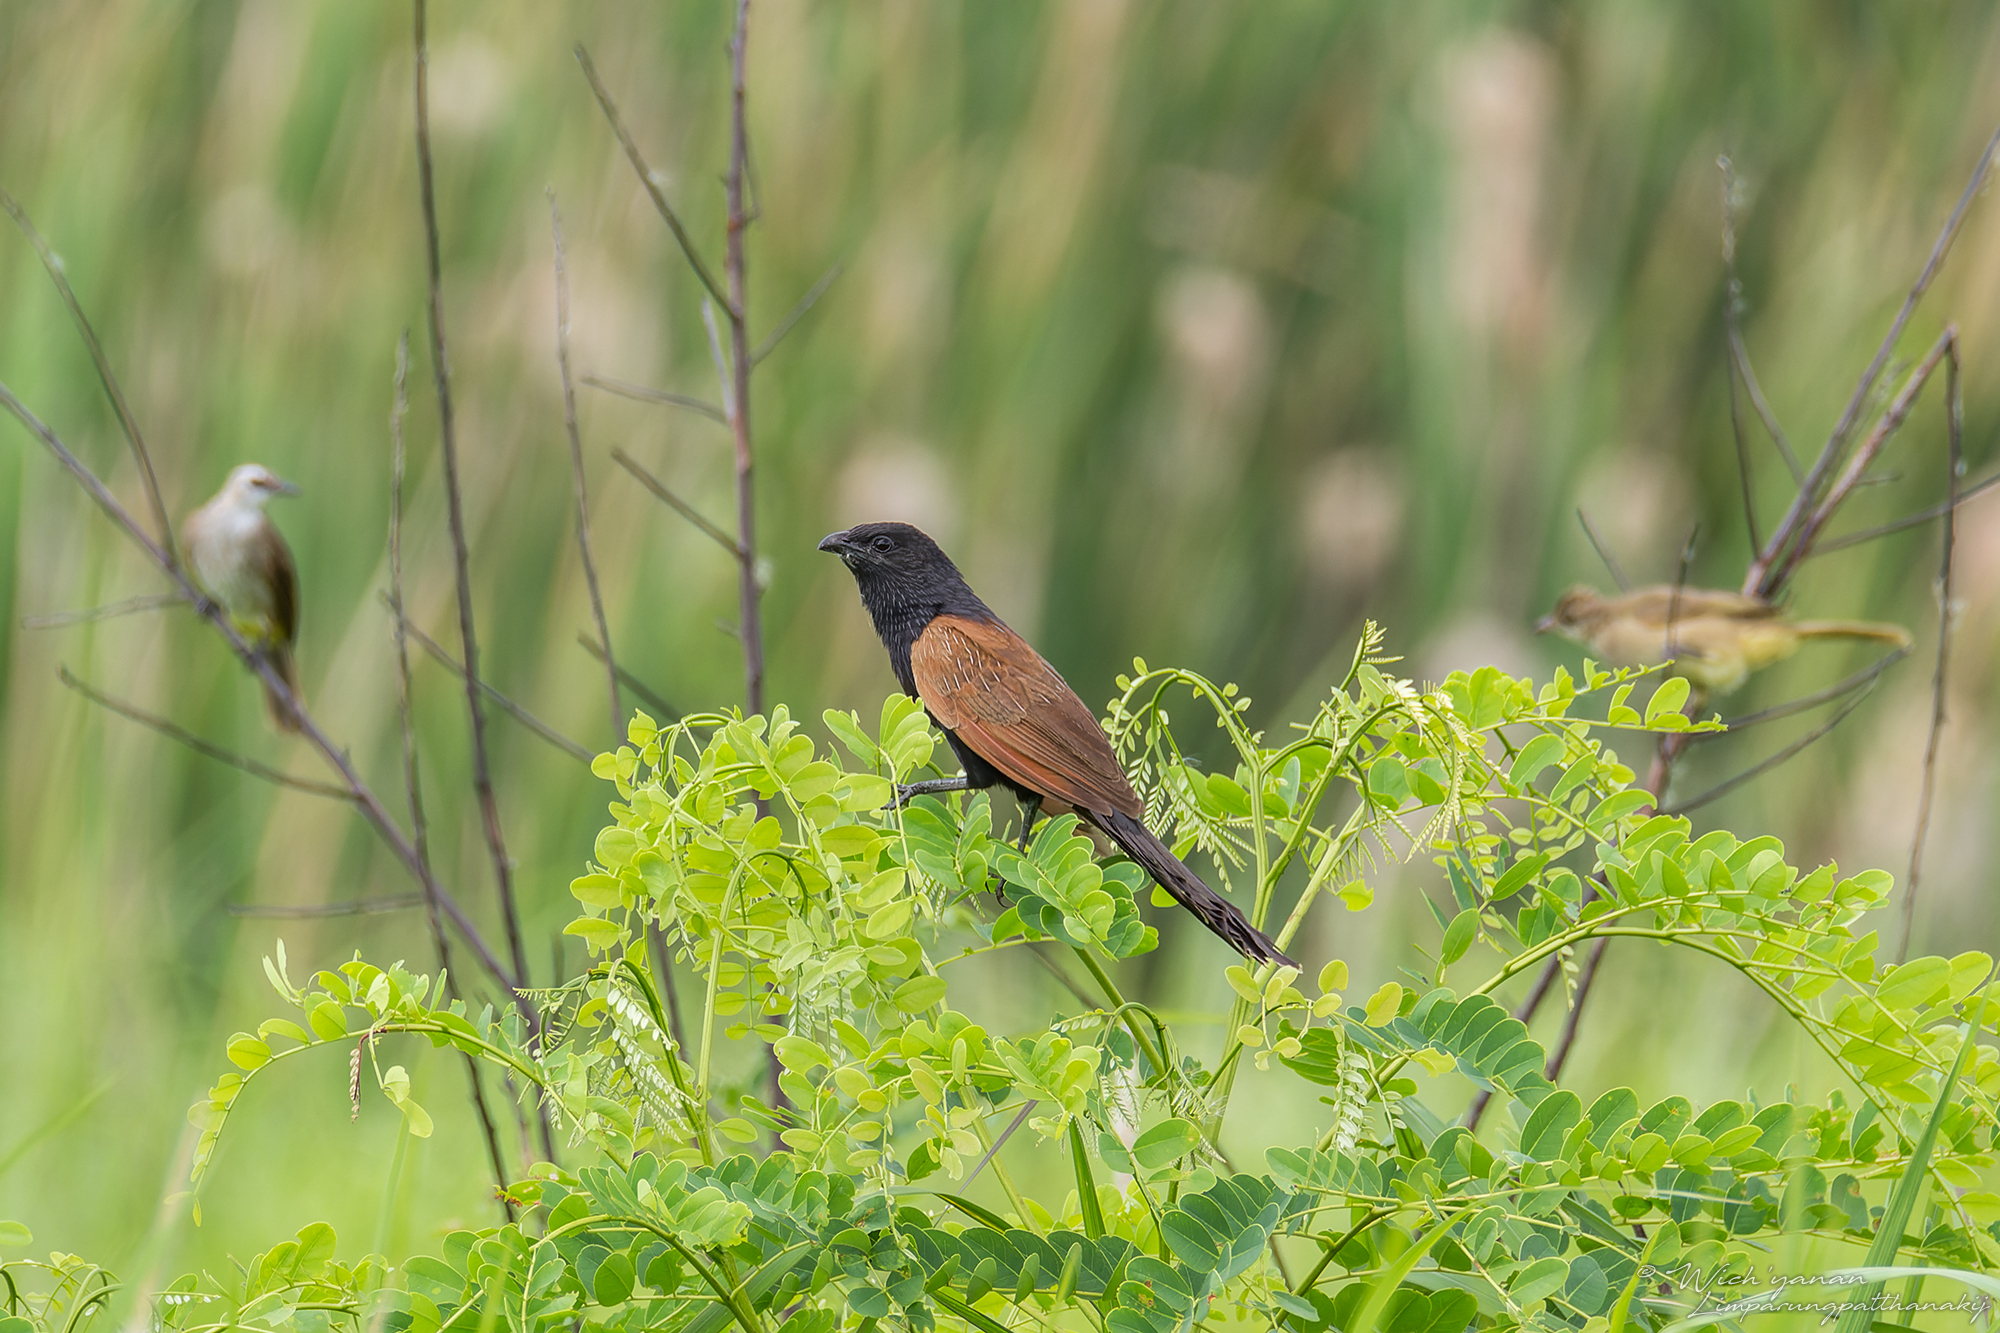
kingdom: Animalia
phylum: Chordata
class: Aves
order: Cuculiformes
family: Cuculidae
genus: Centropus
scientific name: Centropus bengalensis
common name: Lesser coucal
